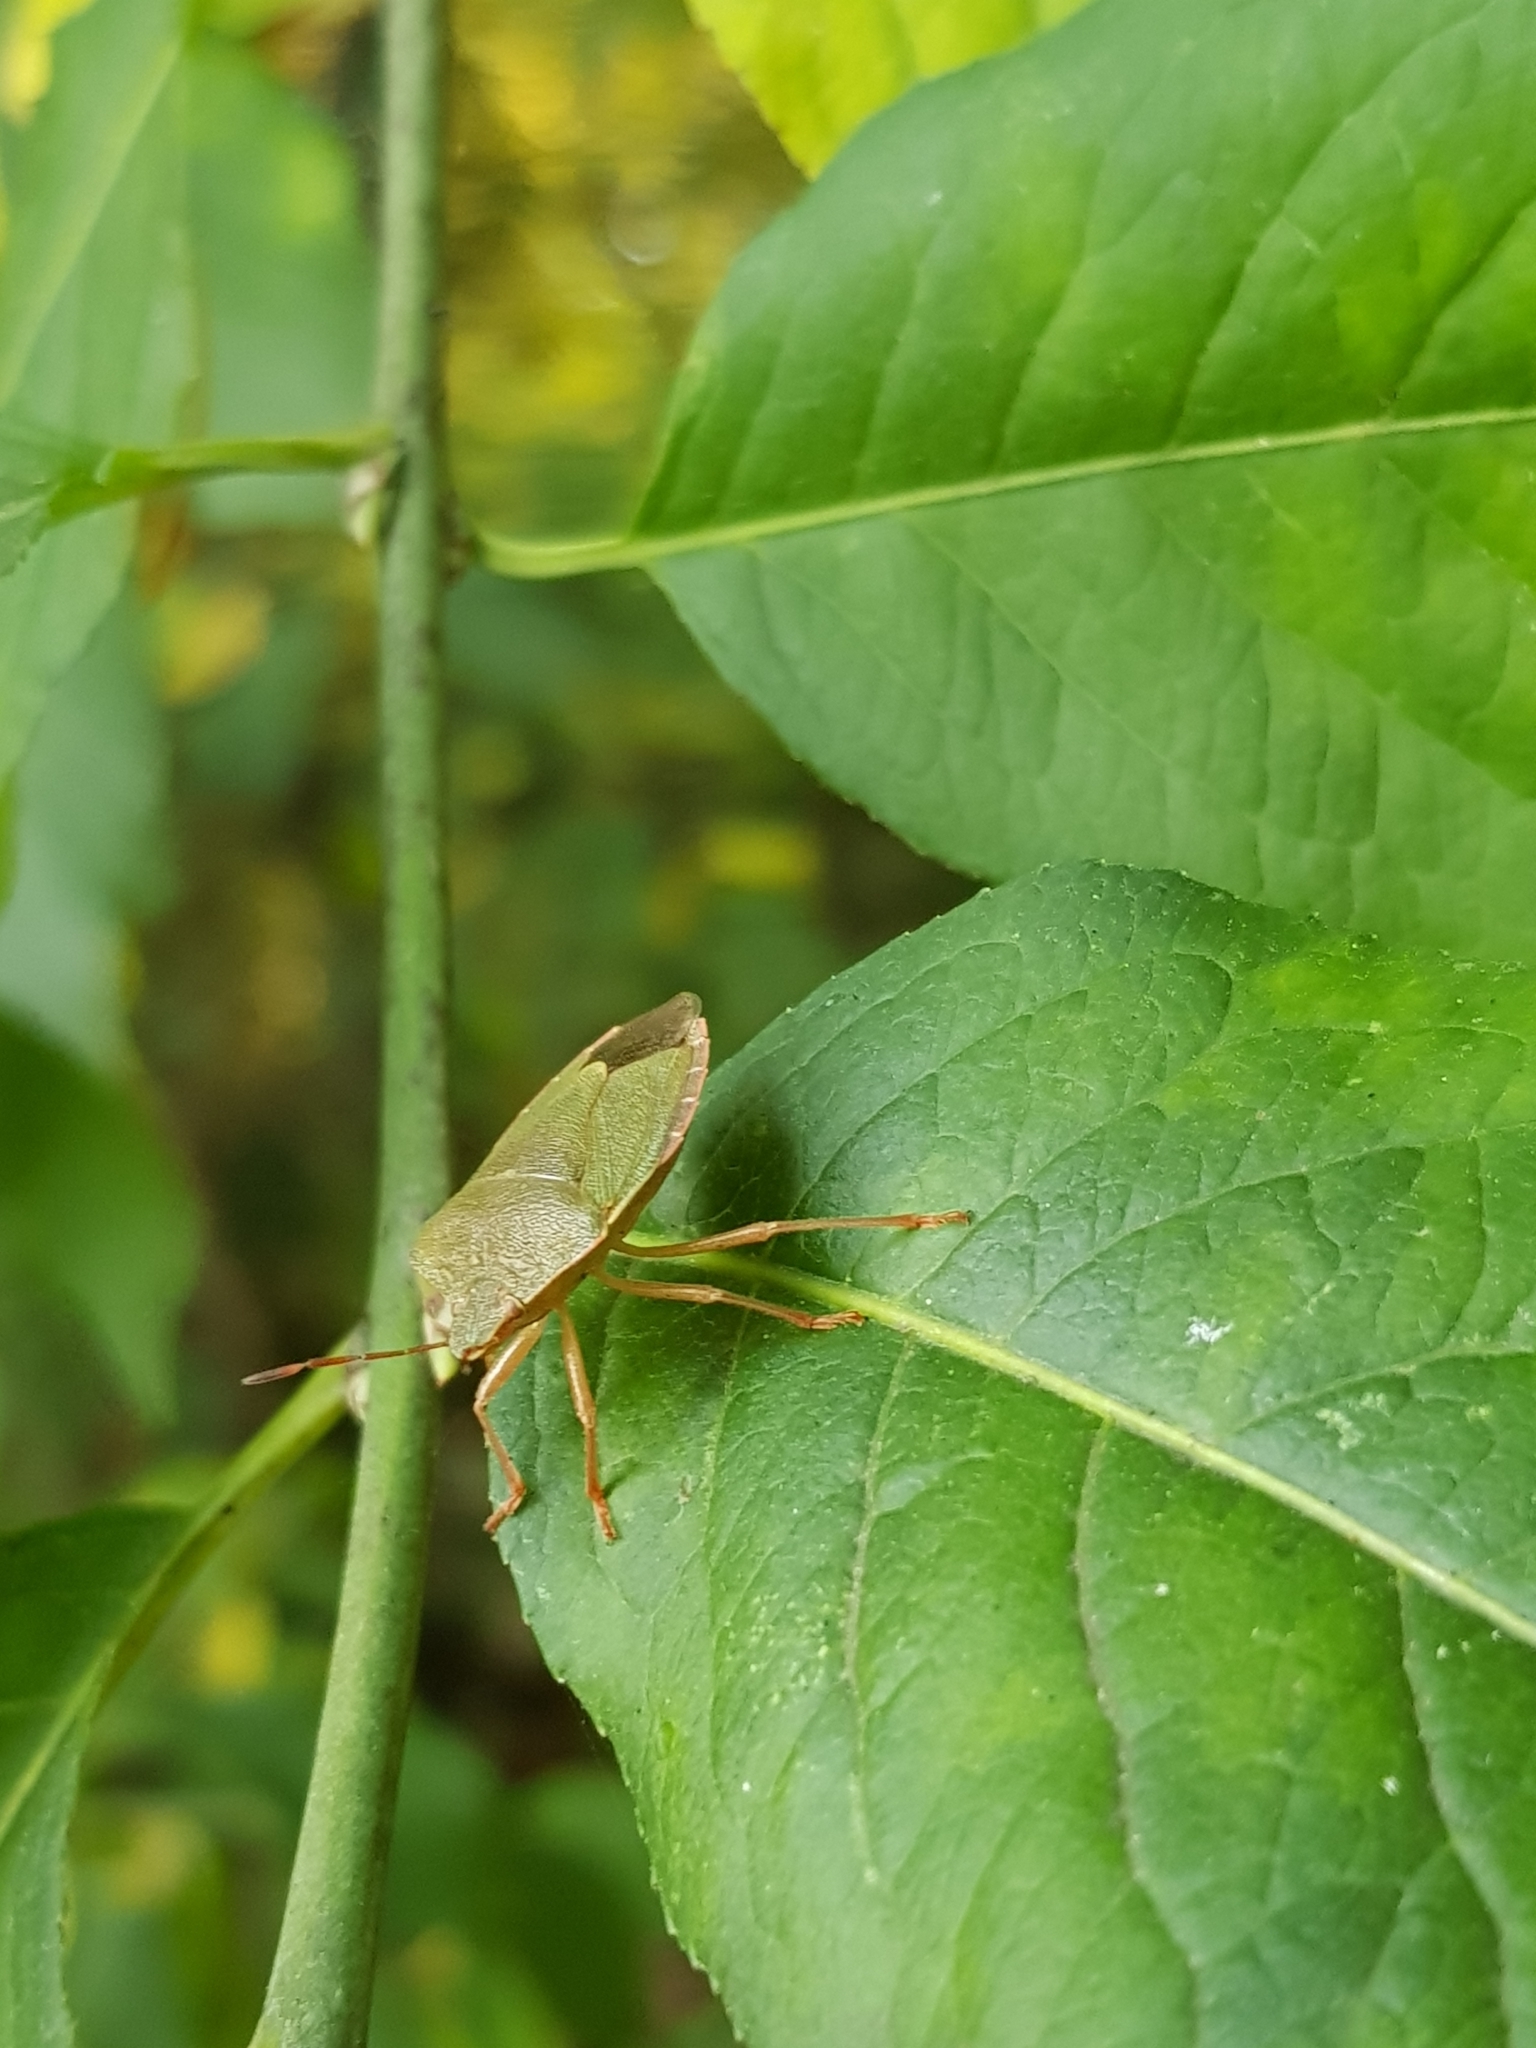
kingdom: Animalia
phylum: Arthropoda
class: Insecta
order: Hemiptera
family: Pentatomidae
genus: Palomena
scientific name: Palomena prasina
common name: Green shieldbug
